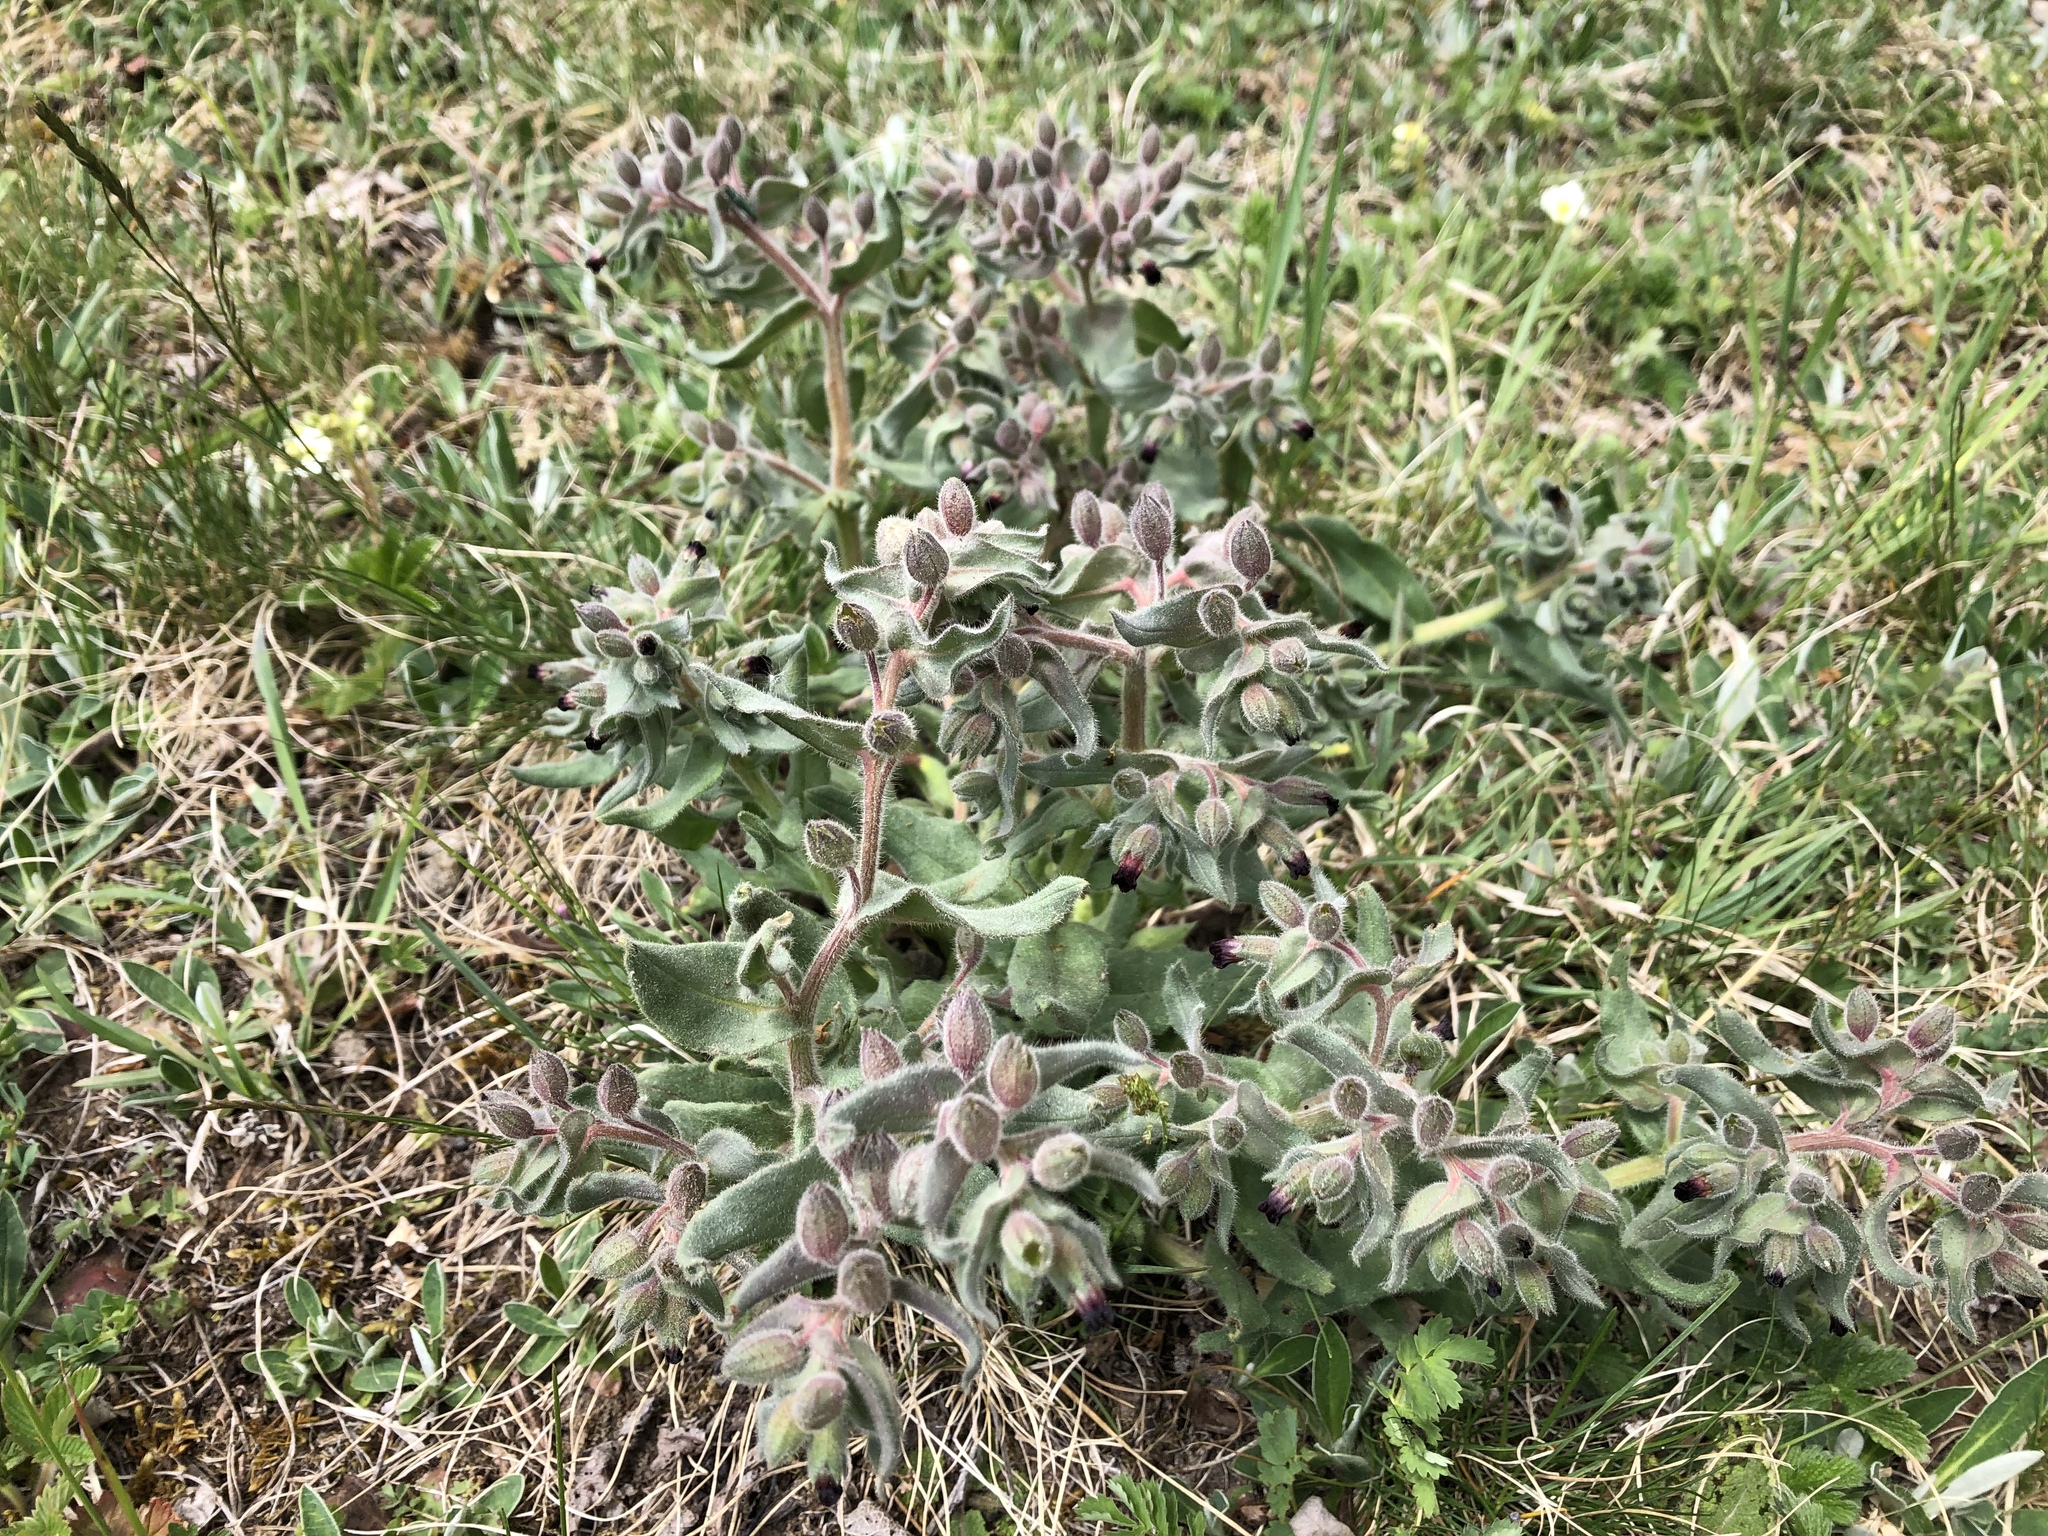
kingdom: Plantae
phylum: Tracheophyta
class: Magnoliopsida
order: Boraginales
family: Boraginaceae
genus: Nonea
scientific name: Nonea pulla
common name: Brown nonea
